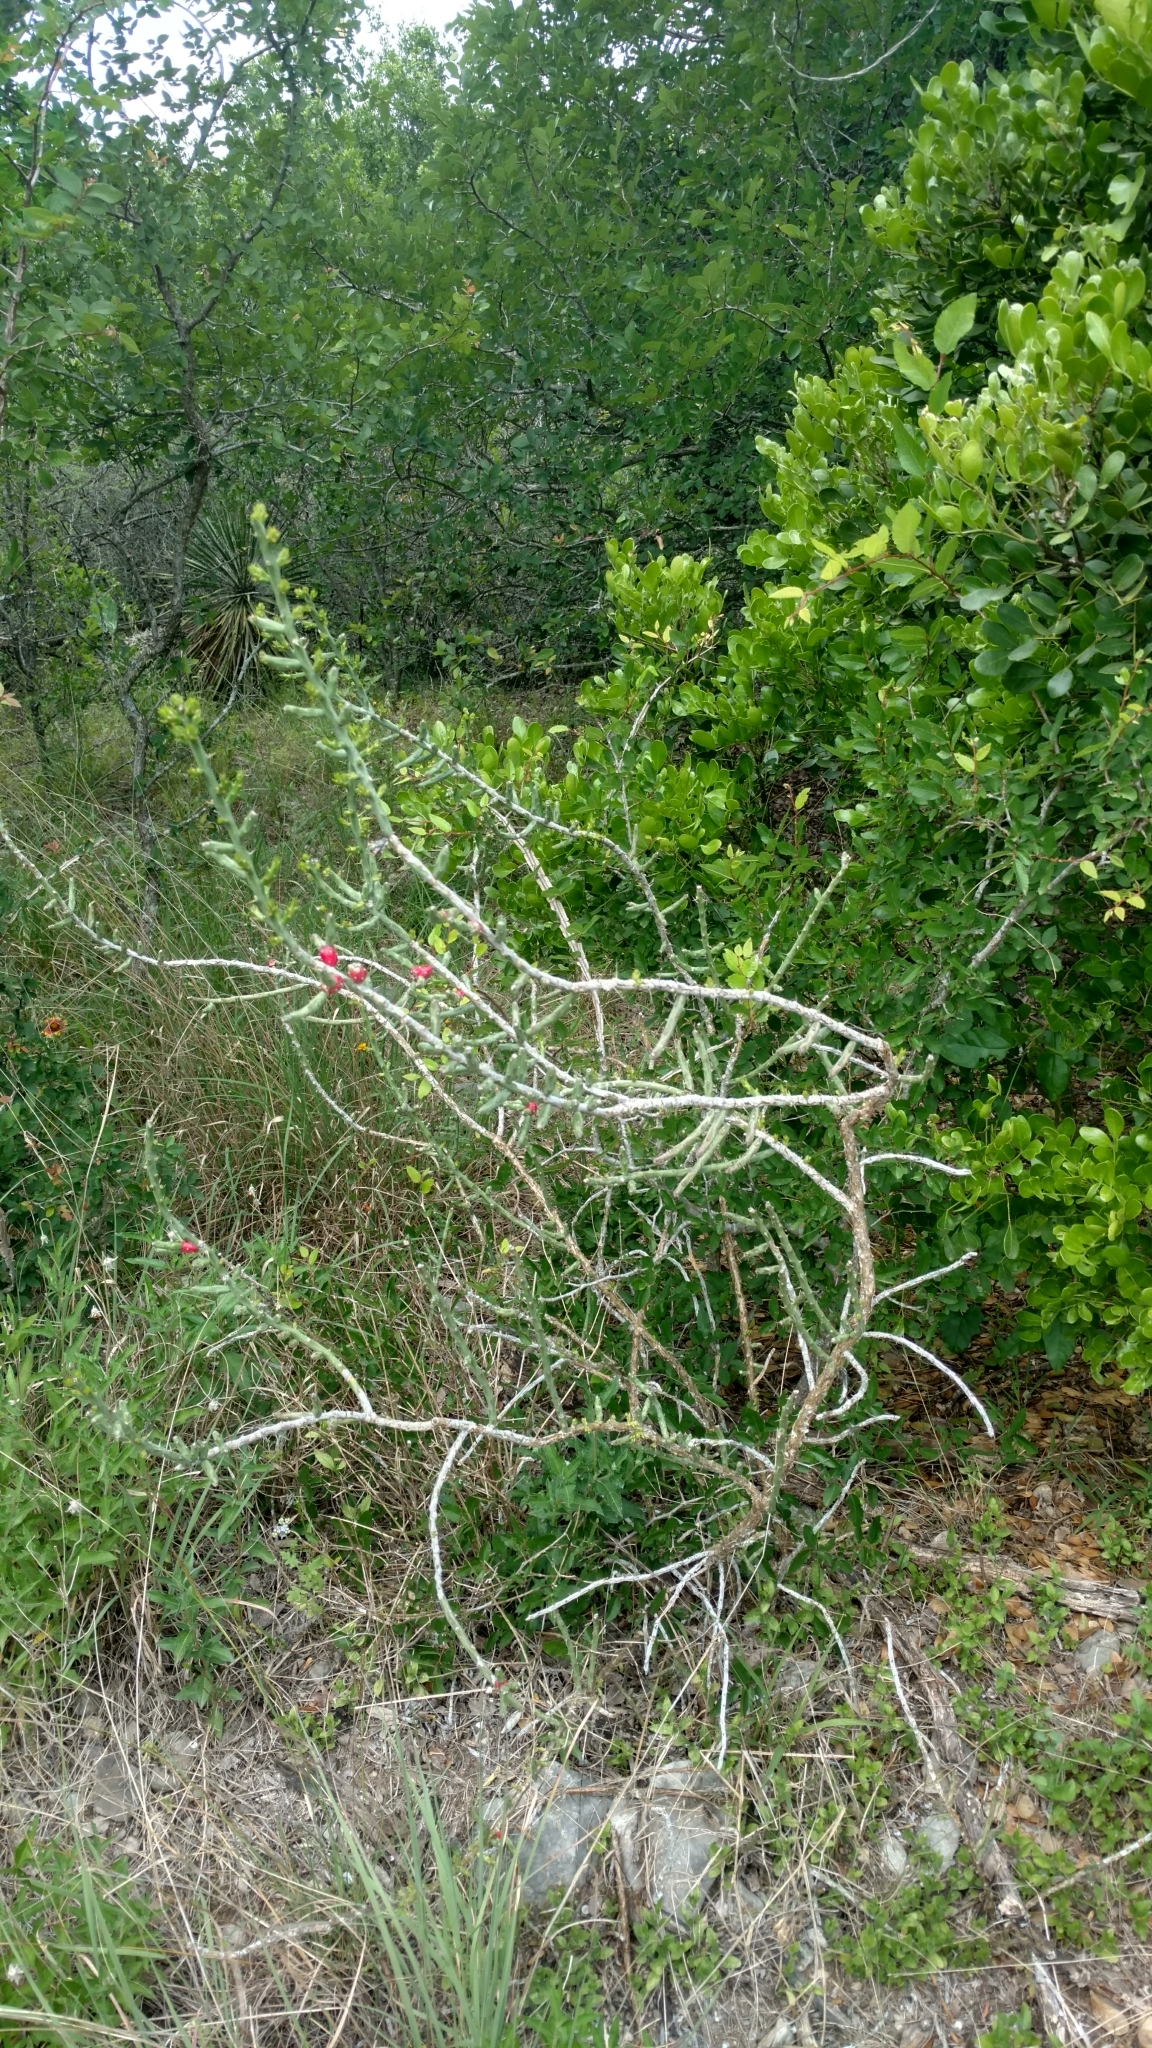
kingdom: Plantae
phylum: Tracheophyta
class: Magnoliopsida
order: Caryophyllales
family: Cactaceae
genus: Cylindropuntia
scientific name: Cylindropuntia leptocaulis
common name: Christmas cactus
